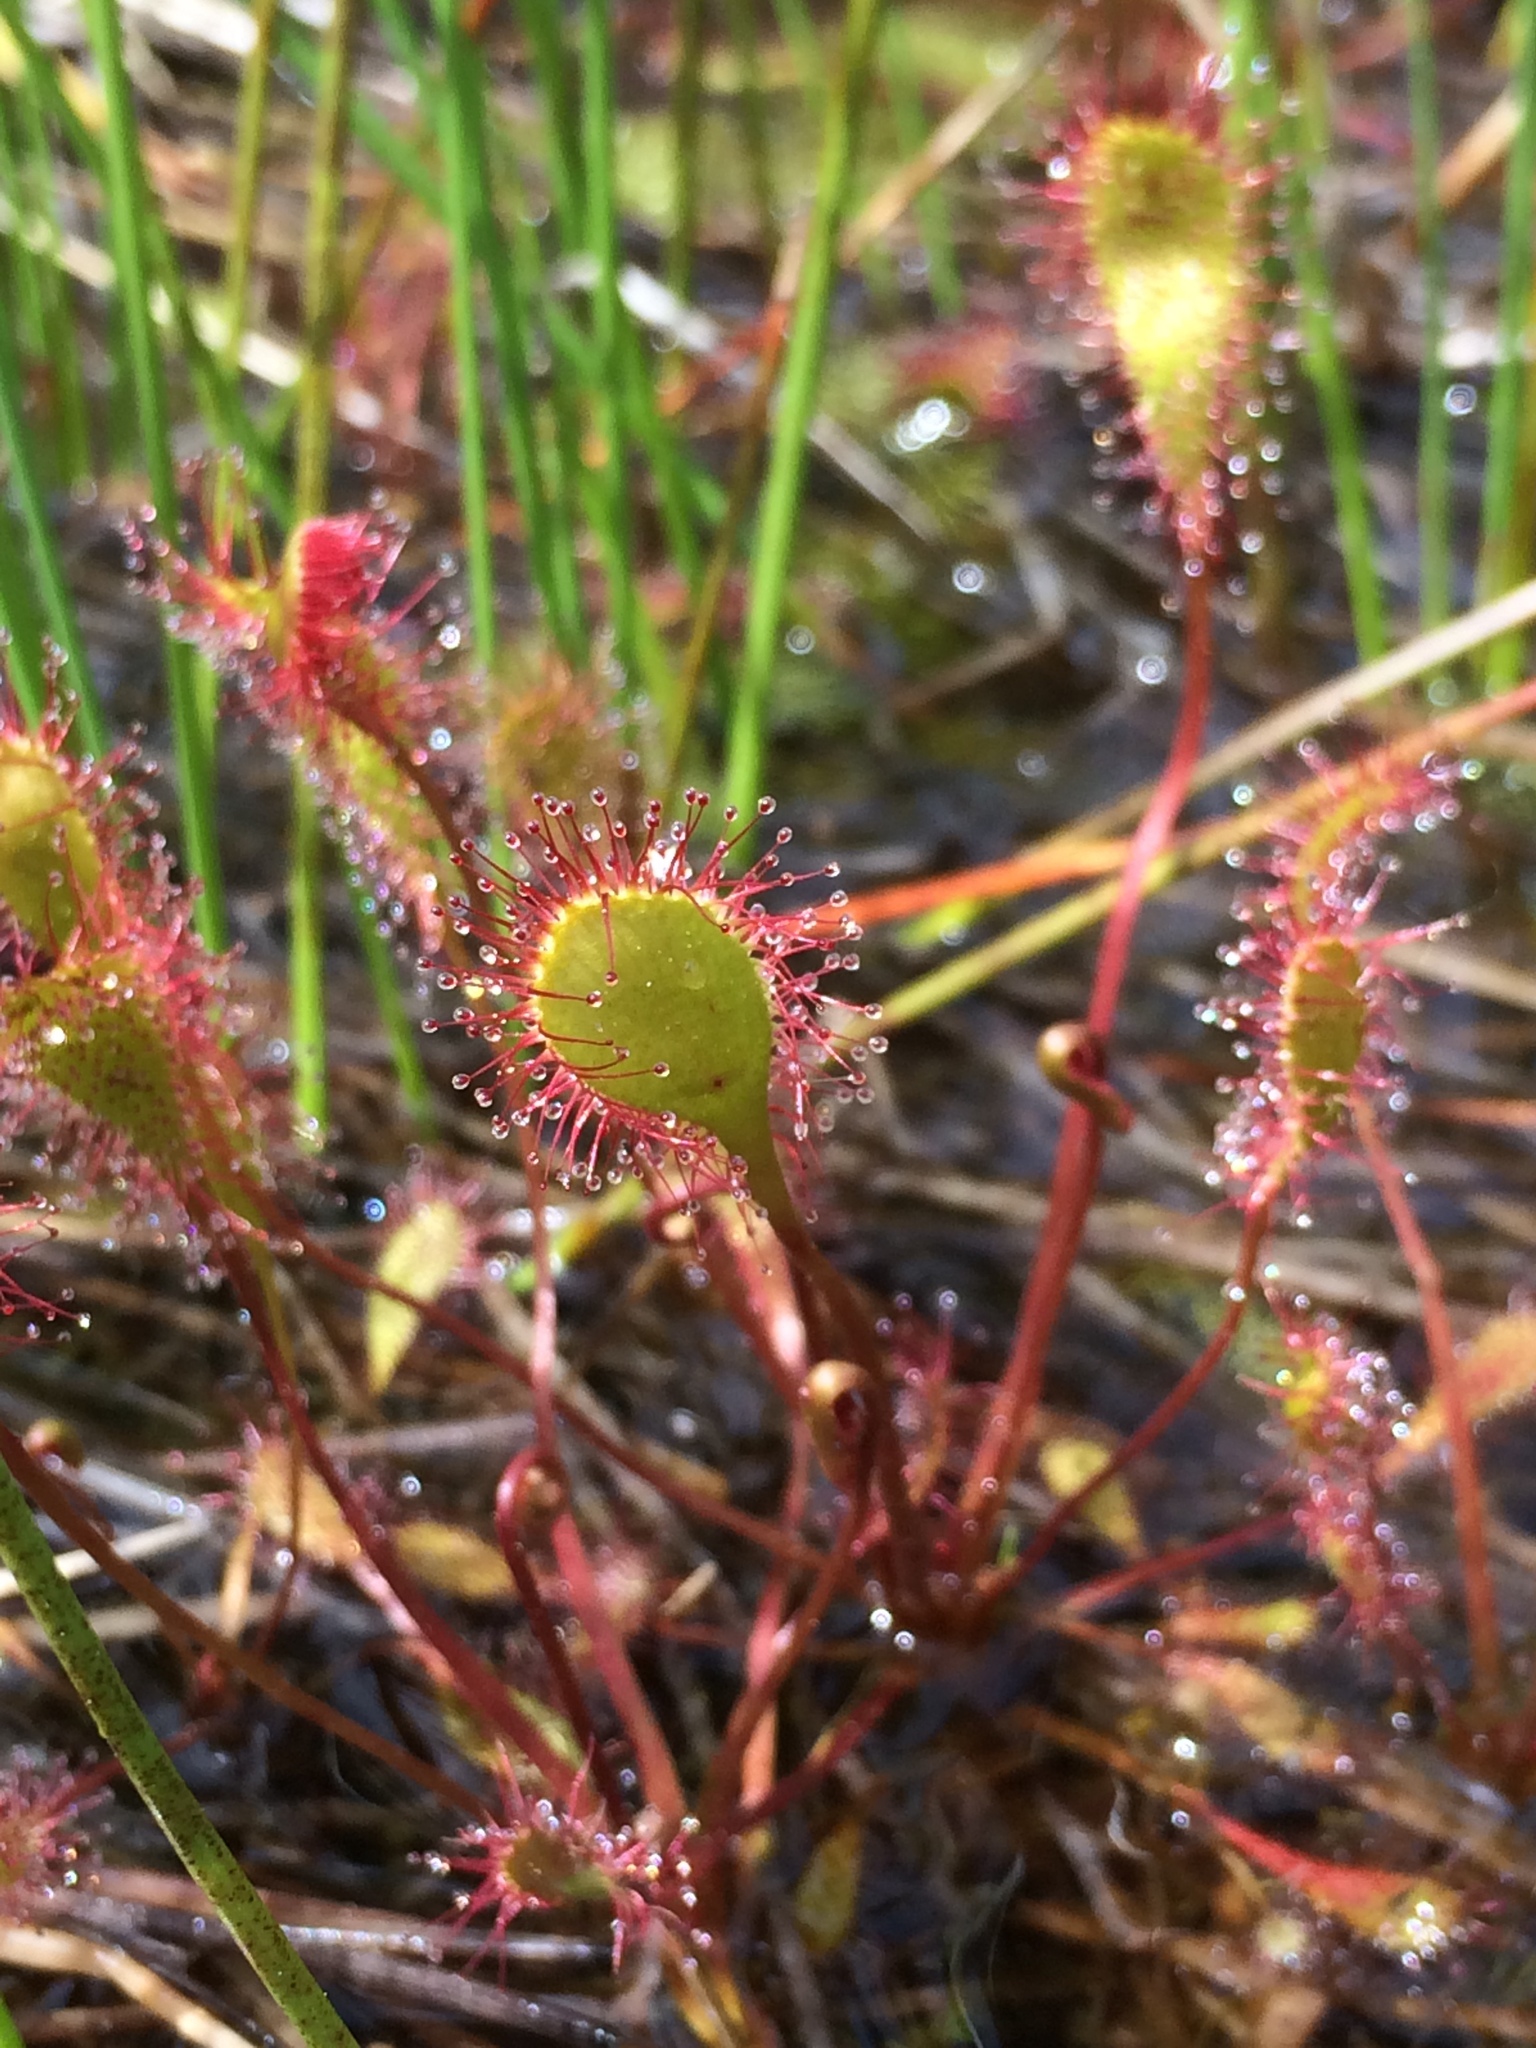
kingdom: Plantae
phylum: Tracheophyta
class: Magnoliopsida
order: Caryophyllales
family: Droseraceae
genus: Drosera
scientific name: Drosera anglica
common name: Great sundew
